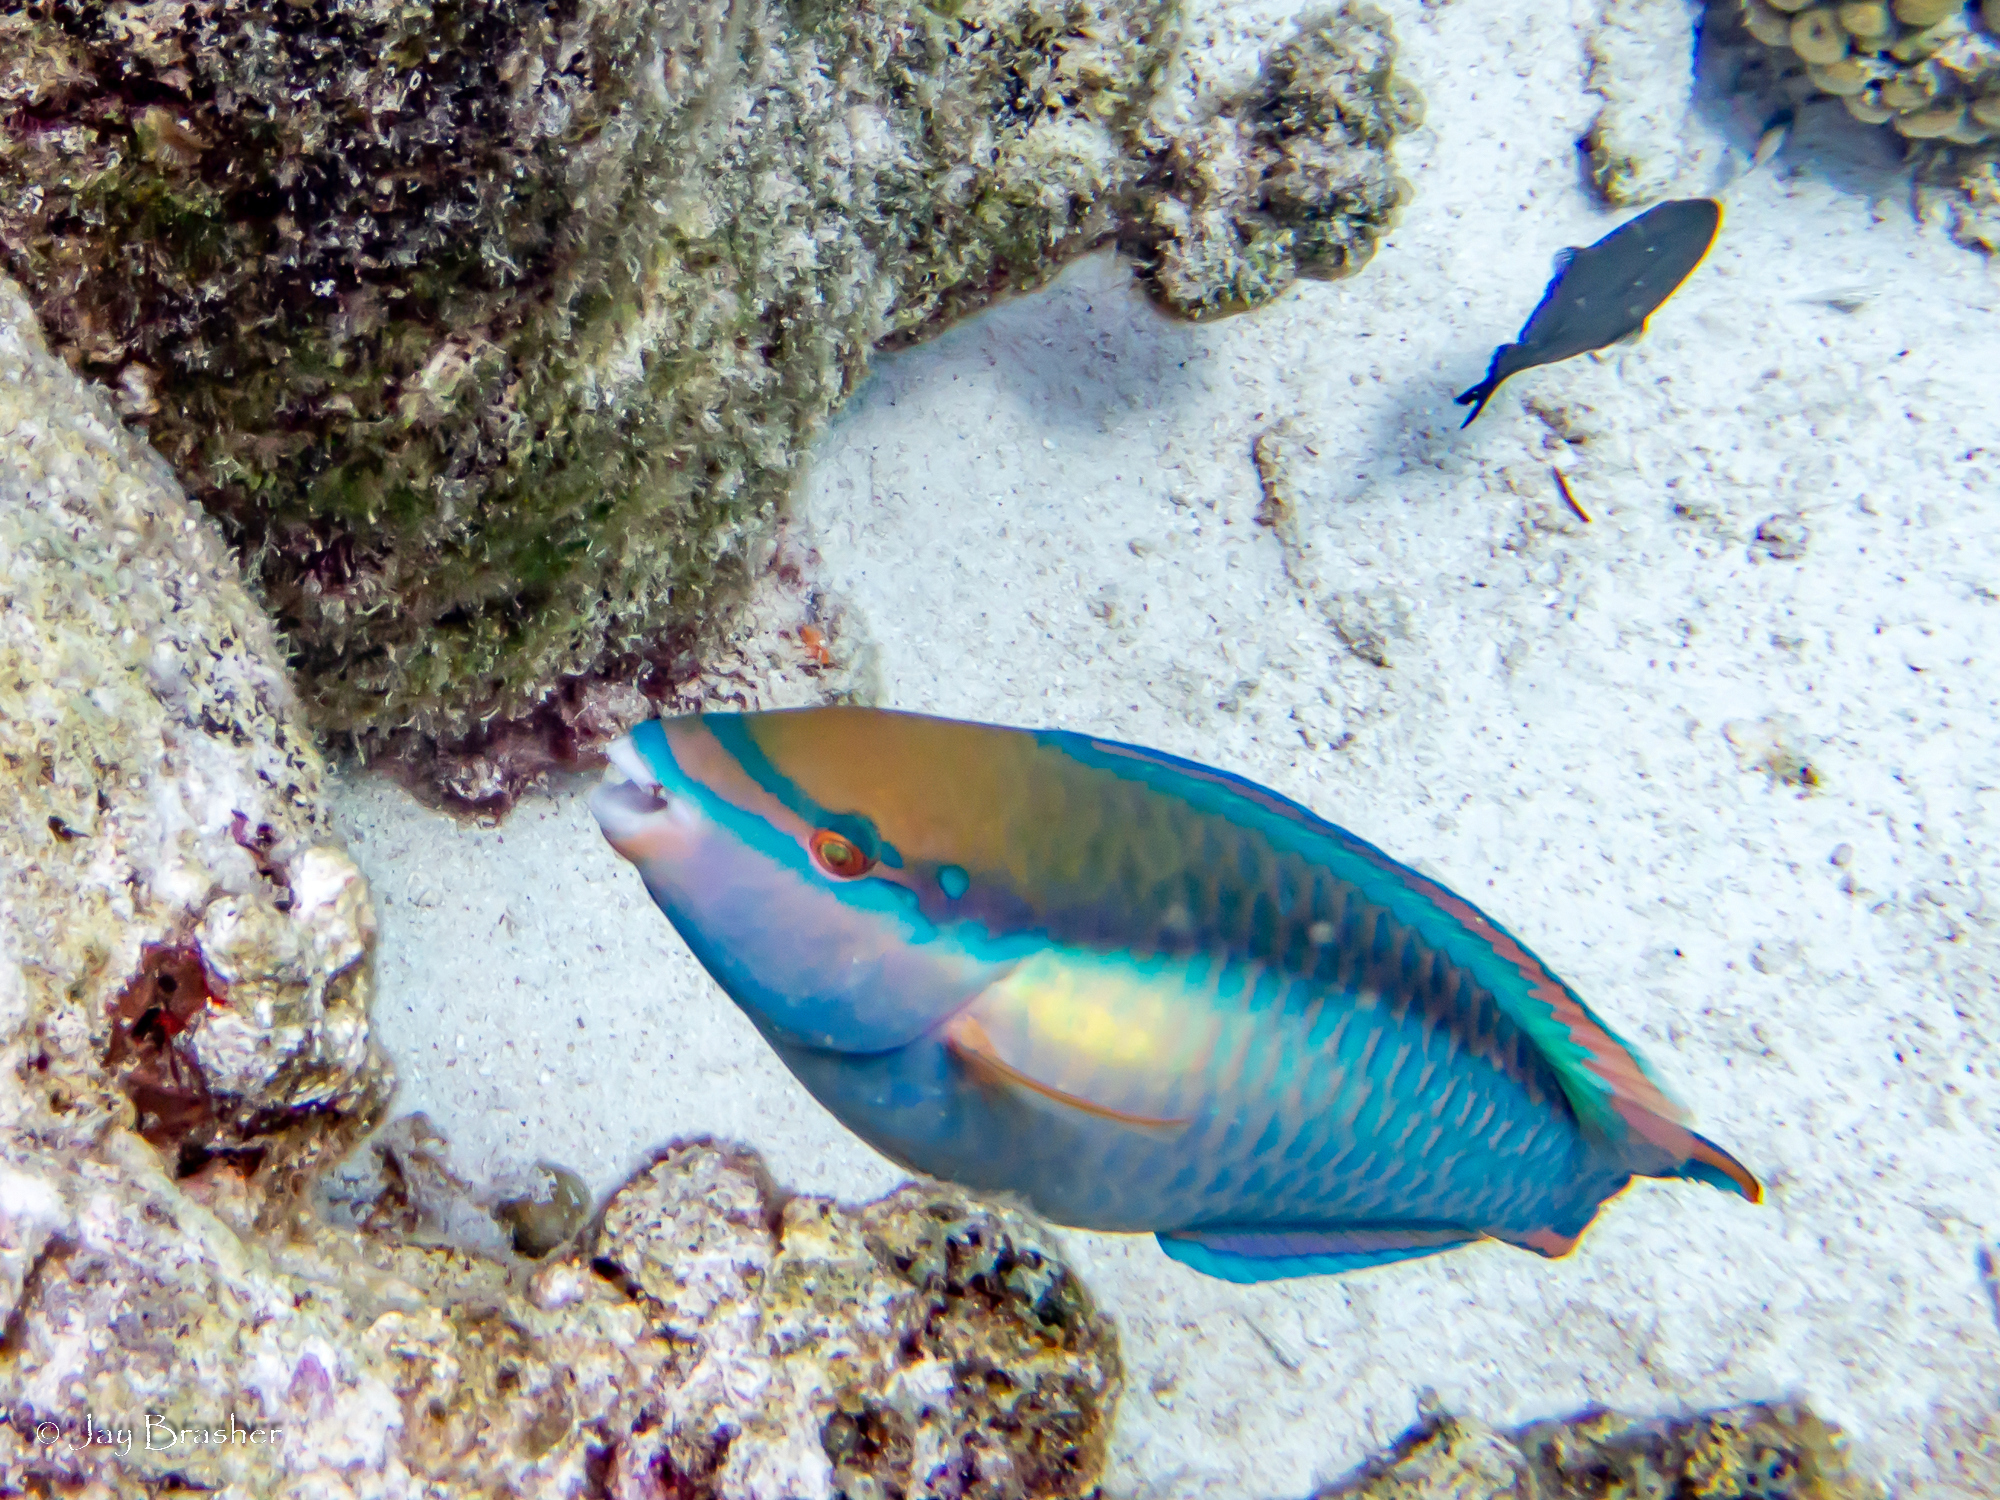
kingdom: Animalia
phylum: Chordata
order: Perciformes
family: Scaridae
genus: Scarus
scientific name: Scarus taeniopterus
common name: Princess parrotfish
